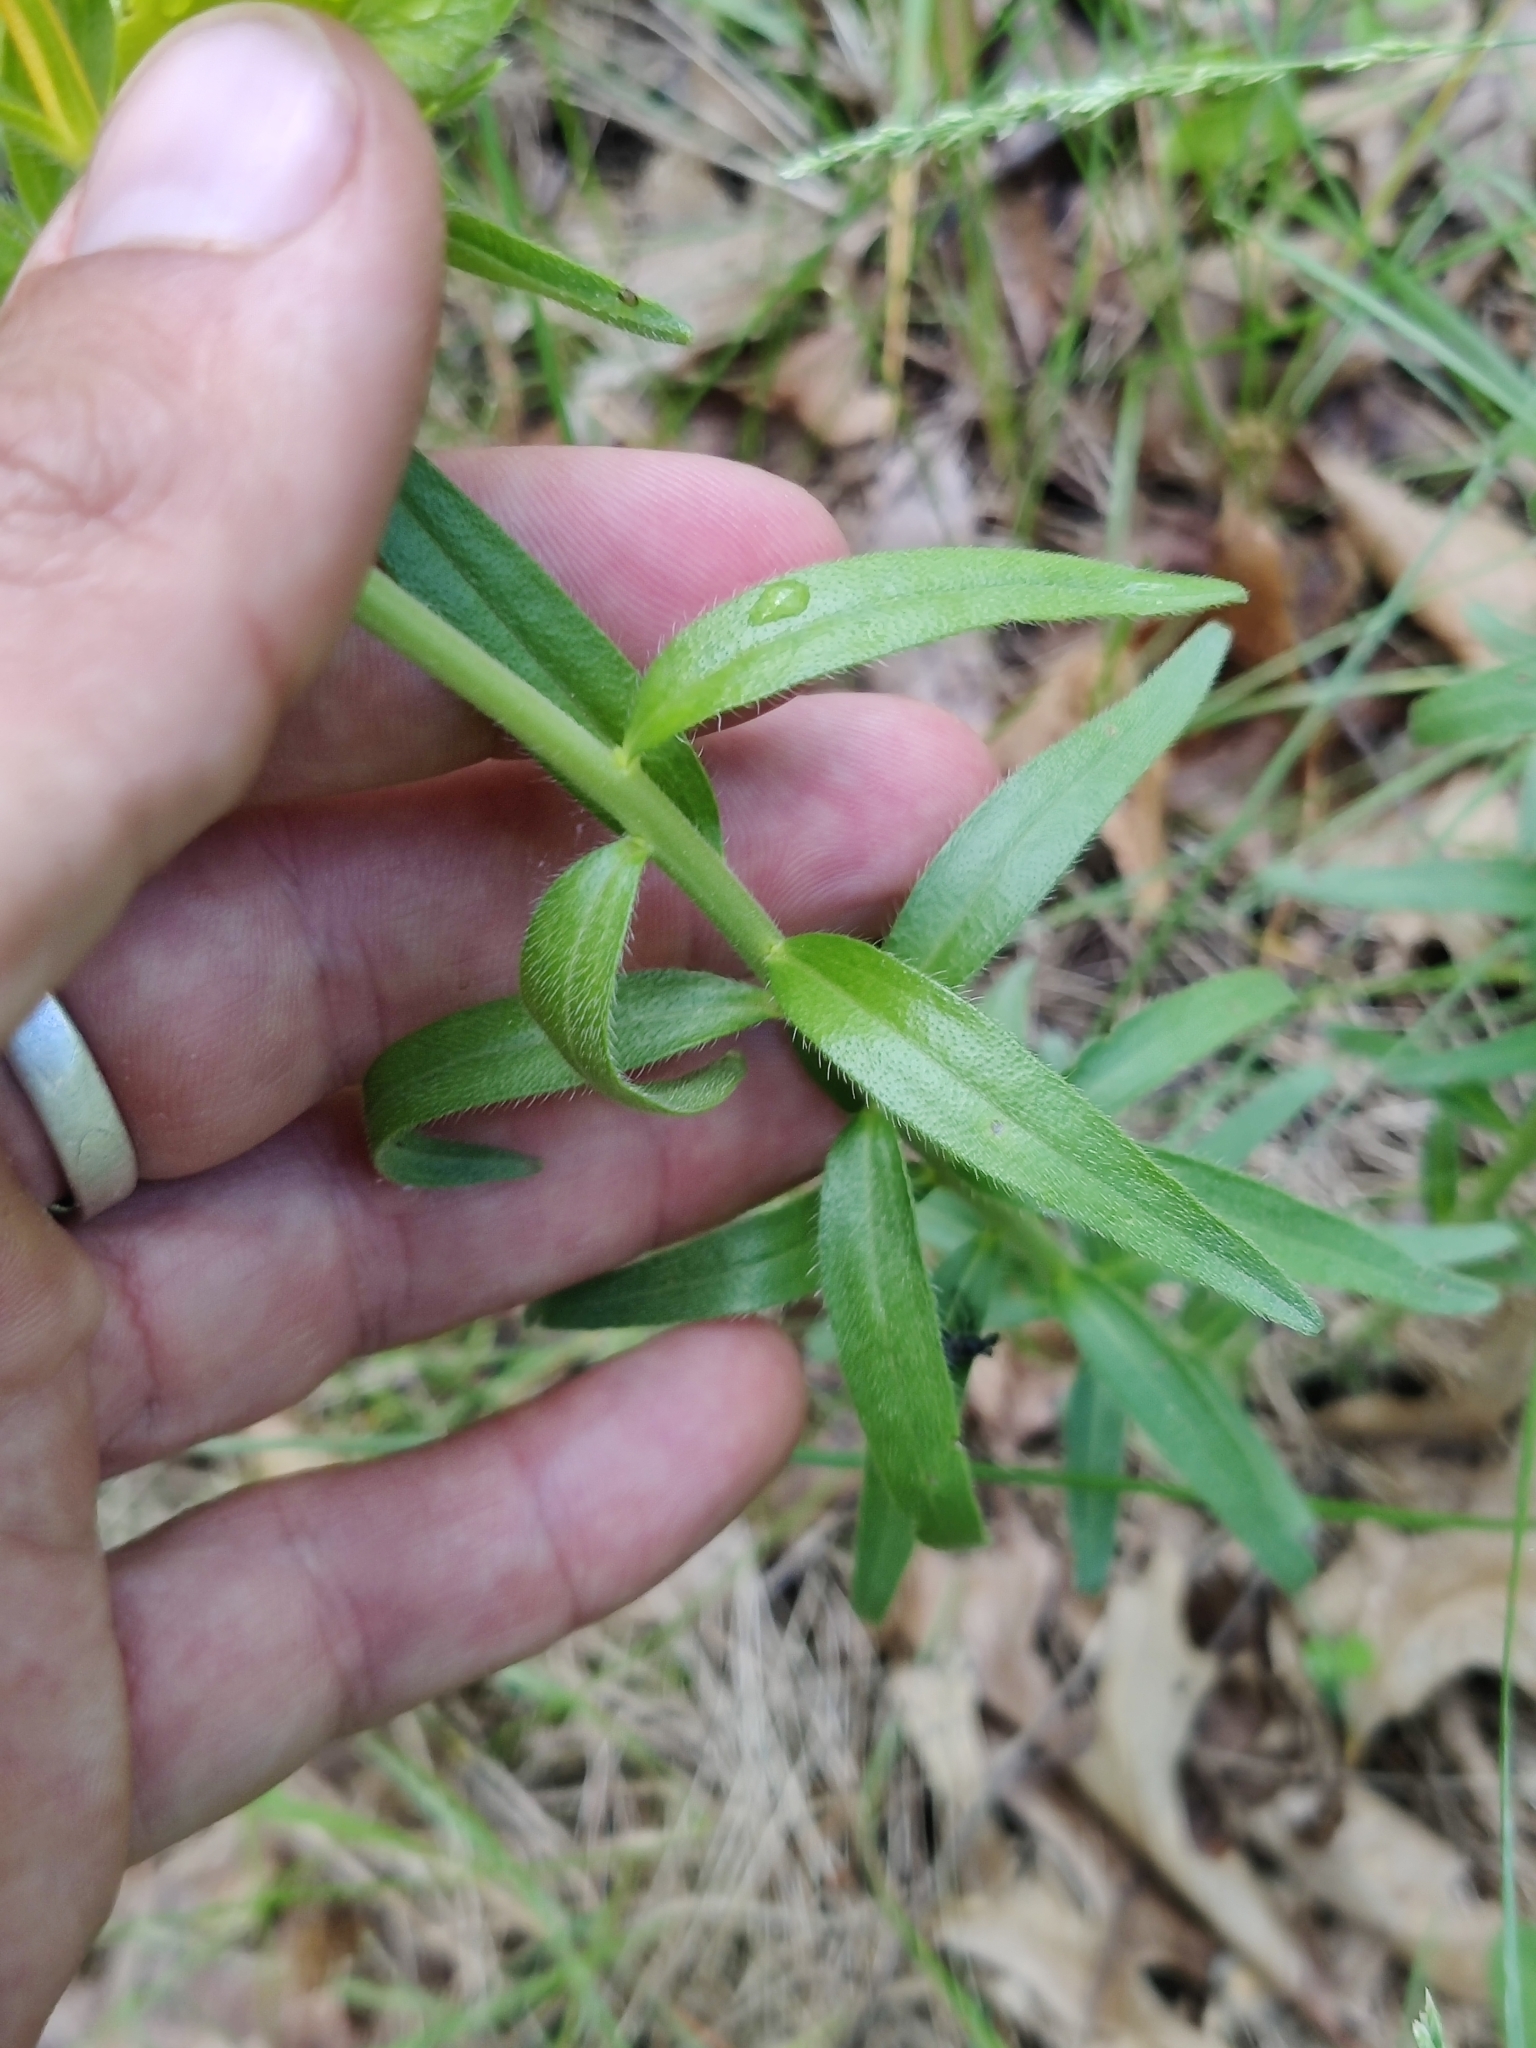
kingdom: Plantae
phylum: Tracheophyta
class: Magnoliopsida
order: Boraginales
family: Boraginaceae
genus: Lithospermum
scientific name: Lithospermum caroliniense
